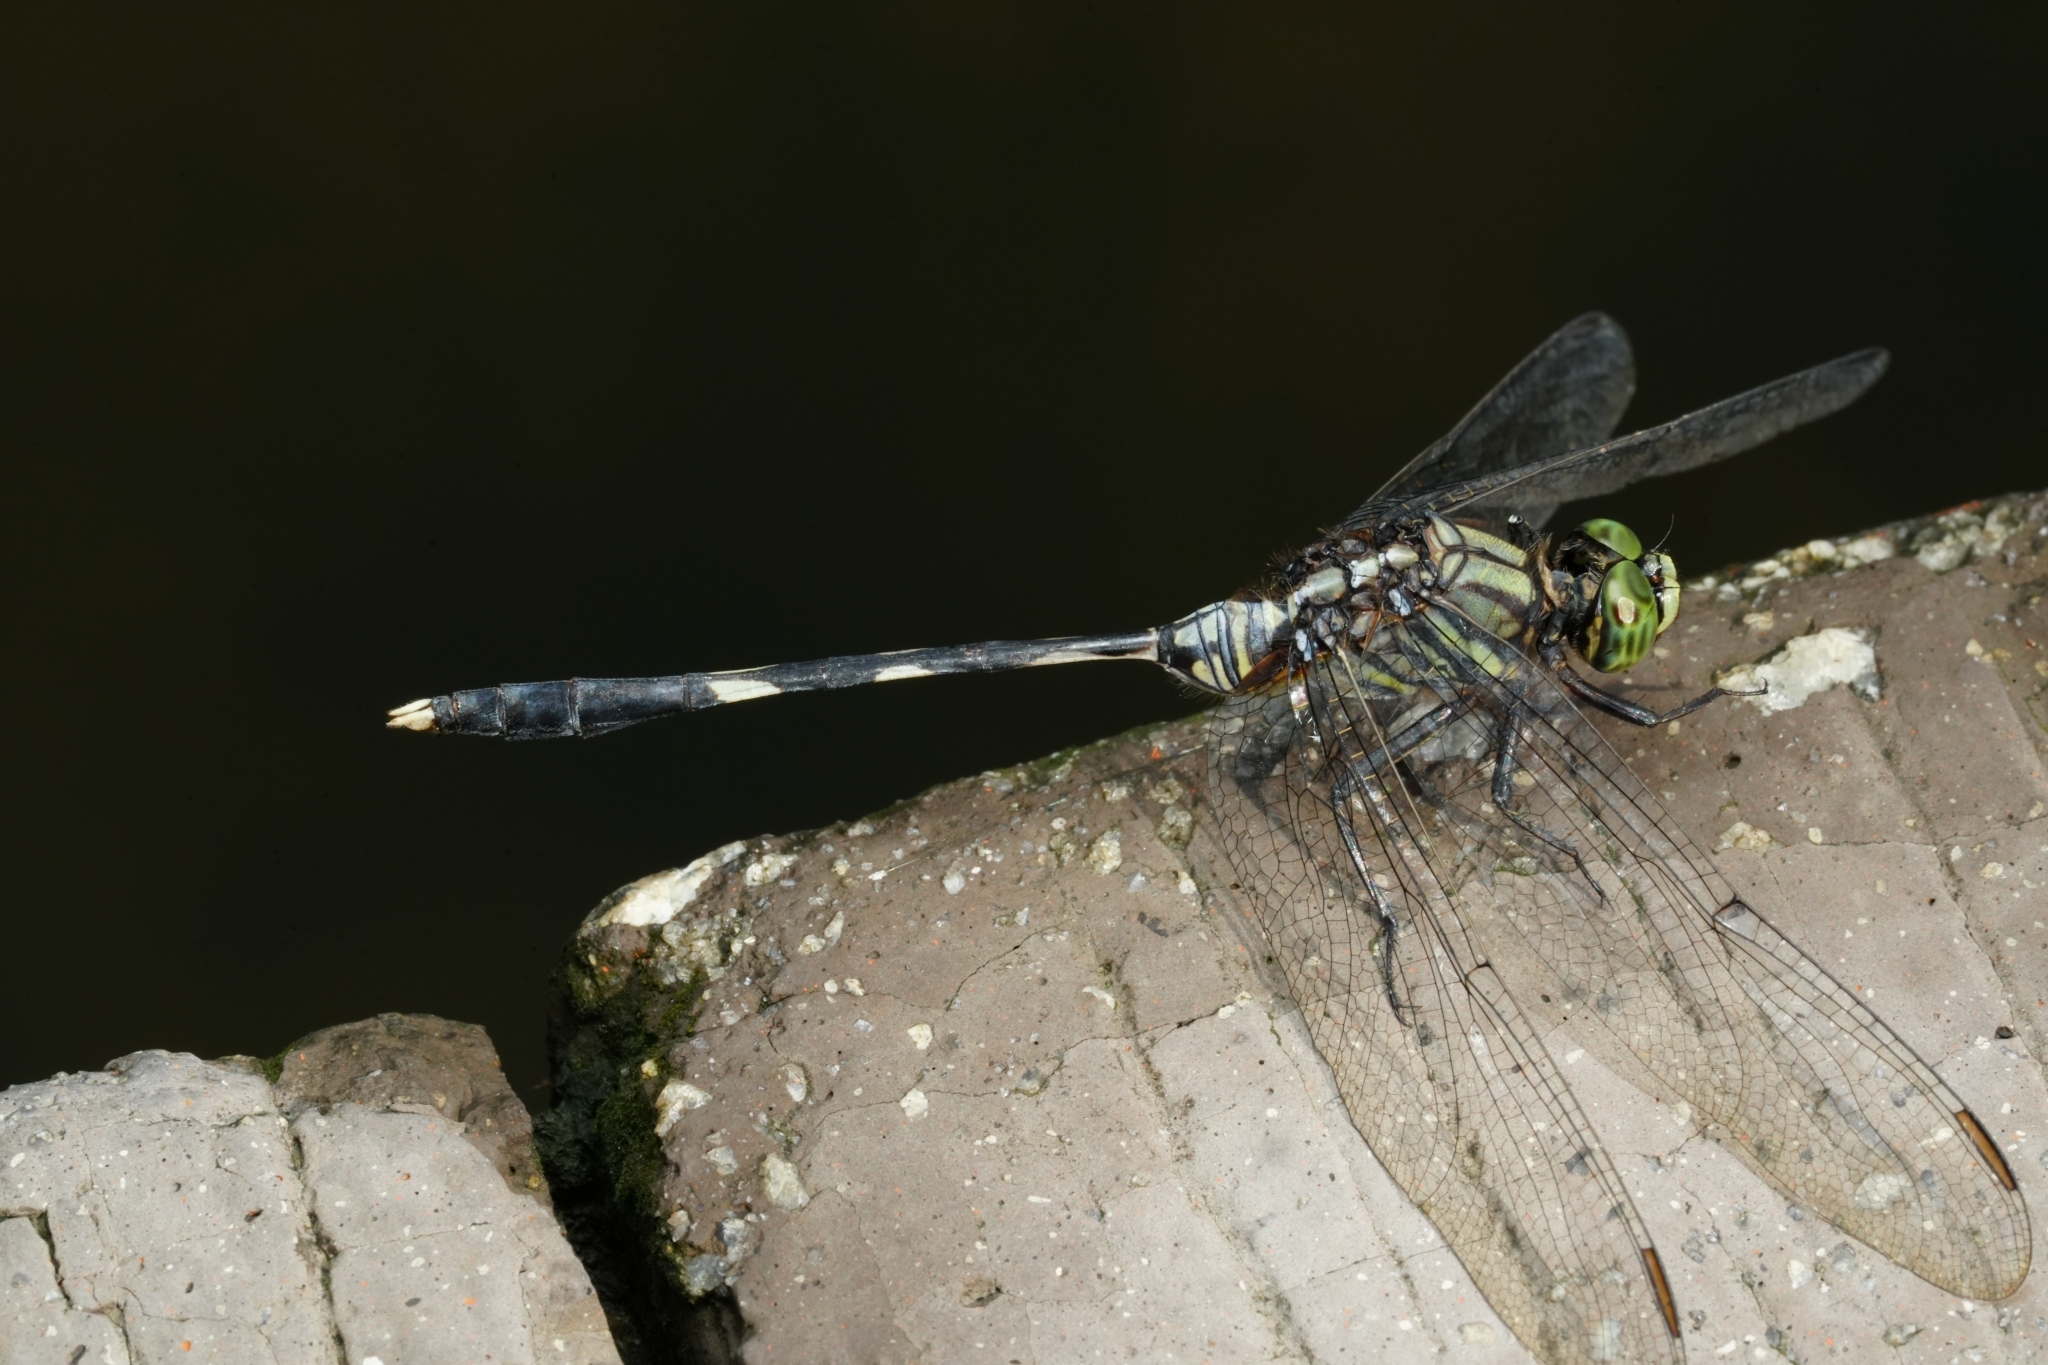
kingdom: Animalia
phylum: Arthropoda
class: Insecta
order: Odonata
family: Libellulidae
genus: Orthetrum
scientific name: Orthetrum sabina
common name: Slender skimmer
